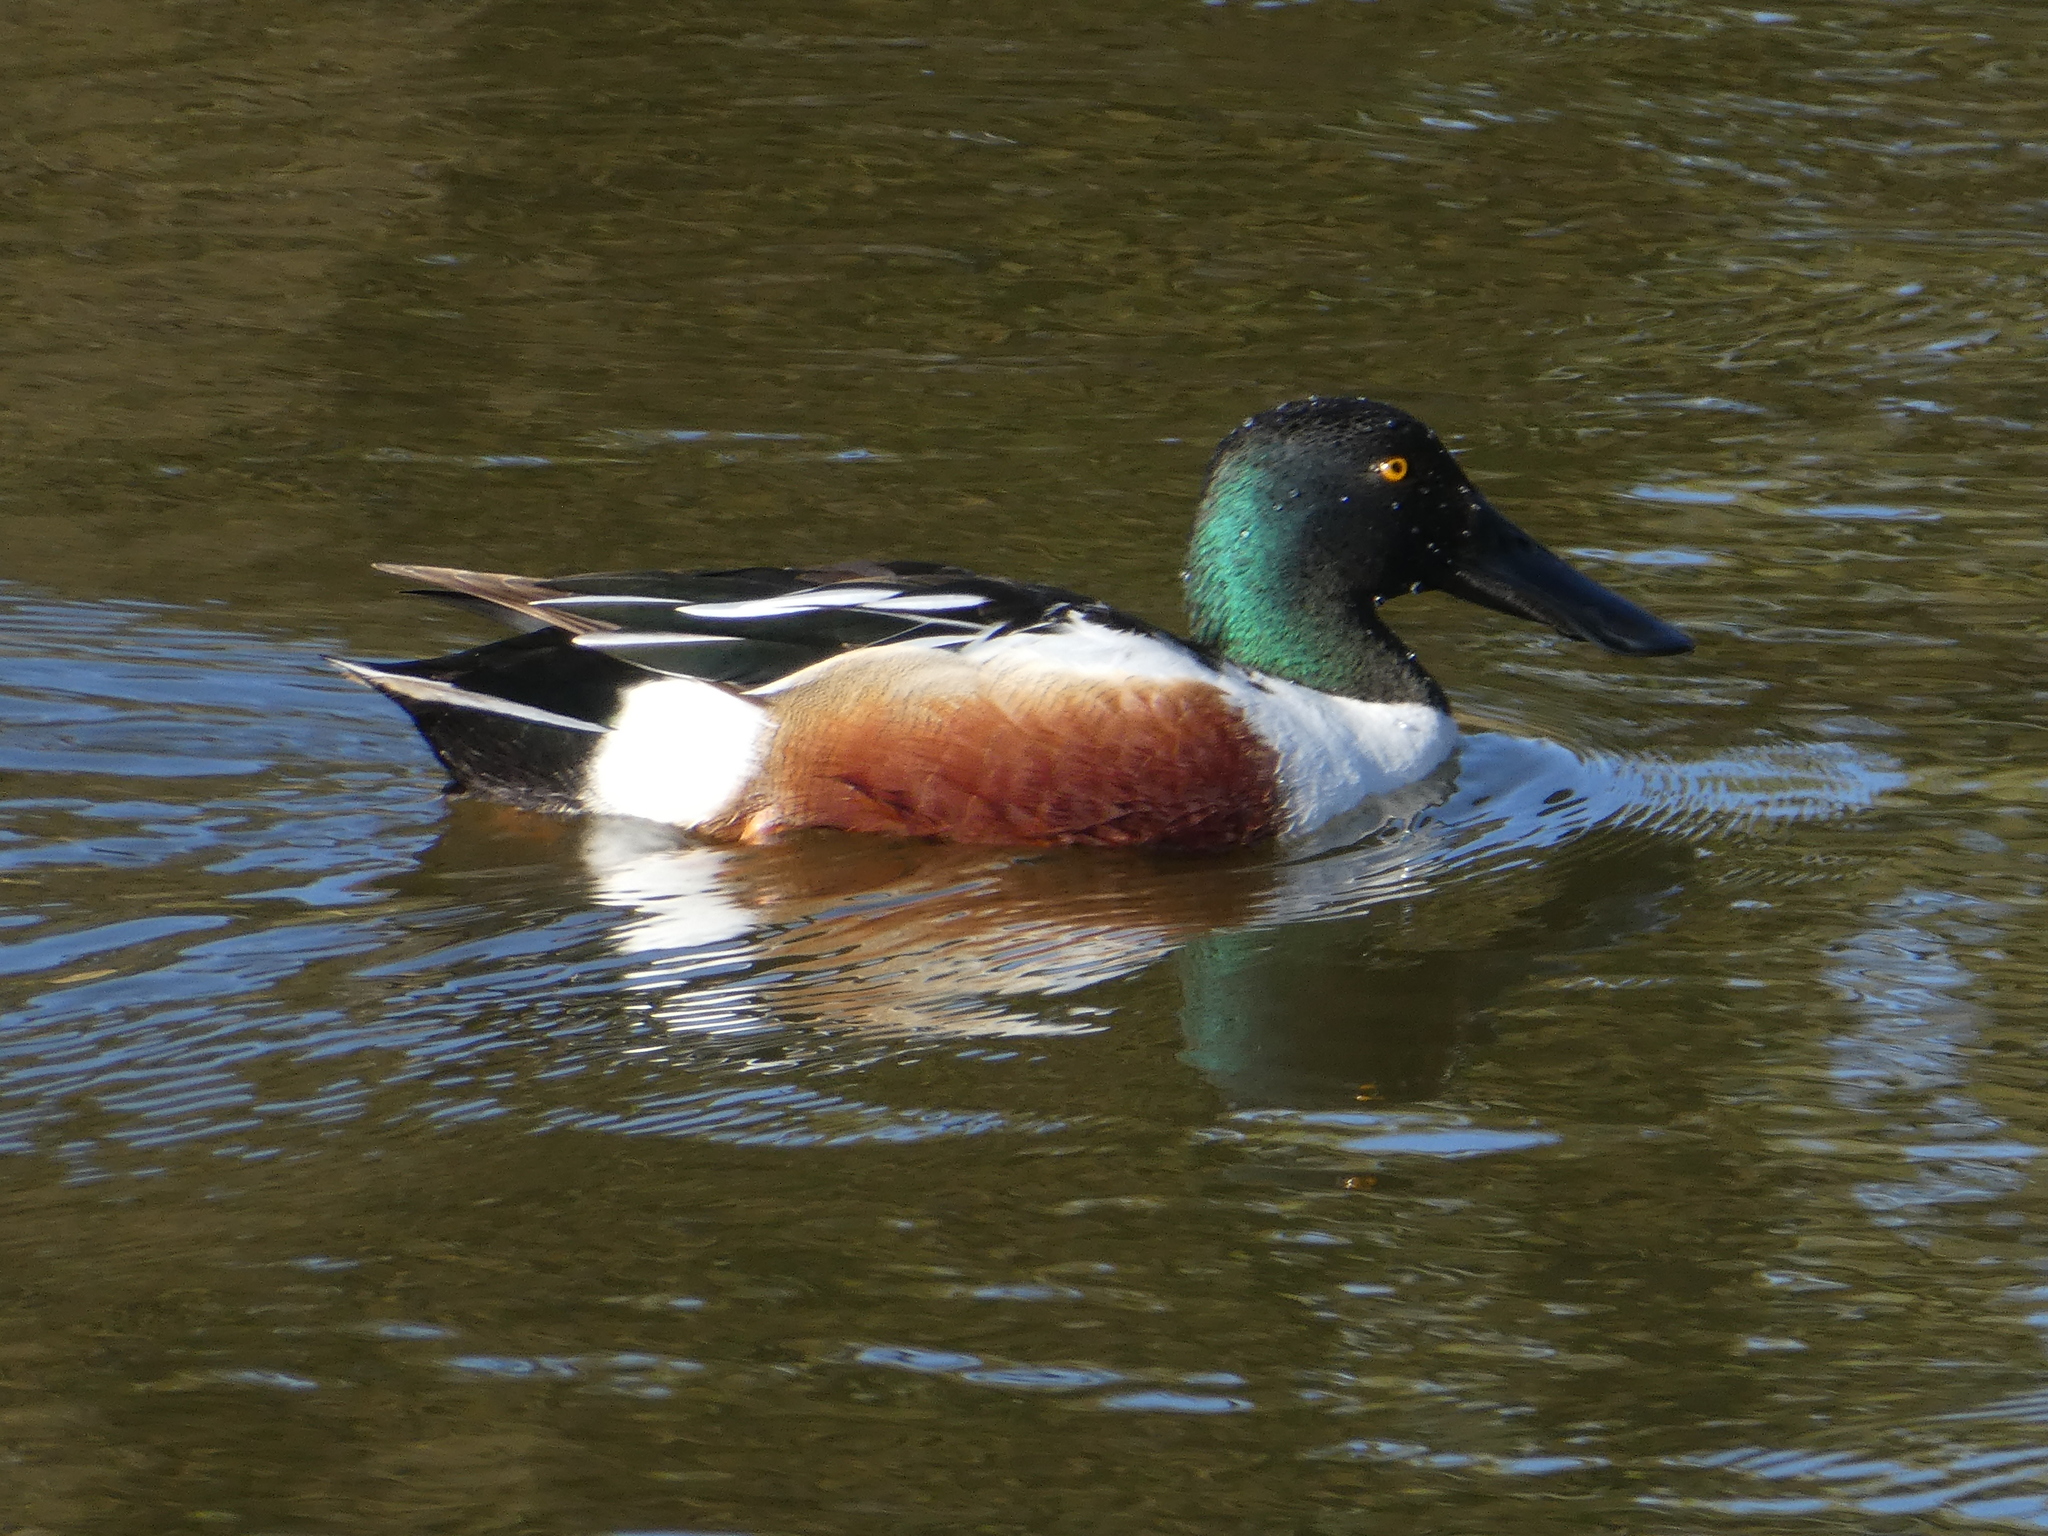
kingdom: Animalia
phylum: Chordata
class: Aves
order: Anseriformes
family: Anatidae
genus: Spatula
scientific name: Spatula clypeata
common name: Northern shoveler
